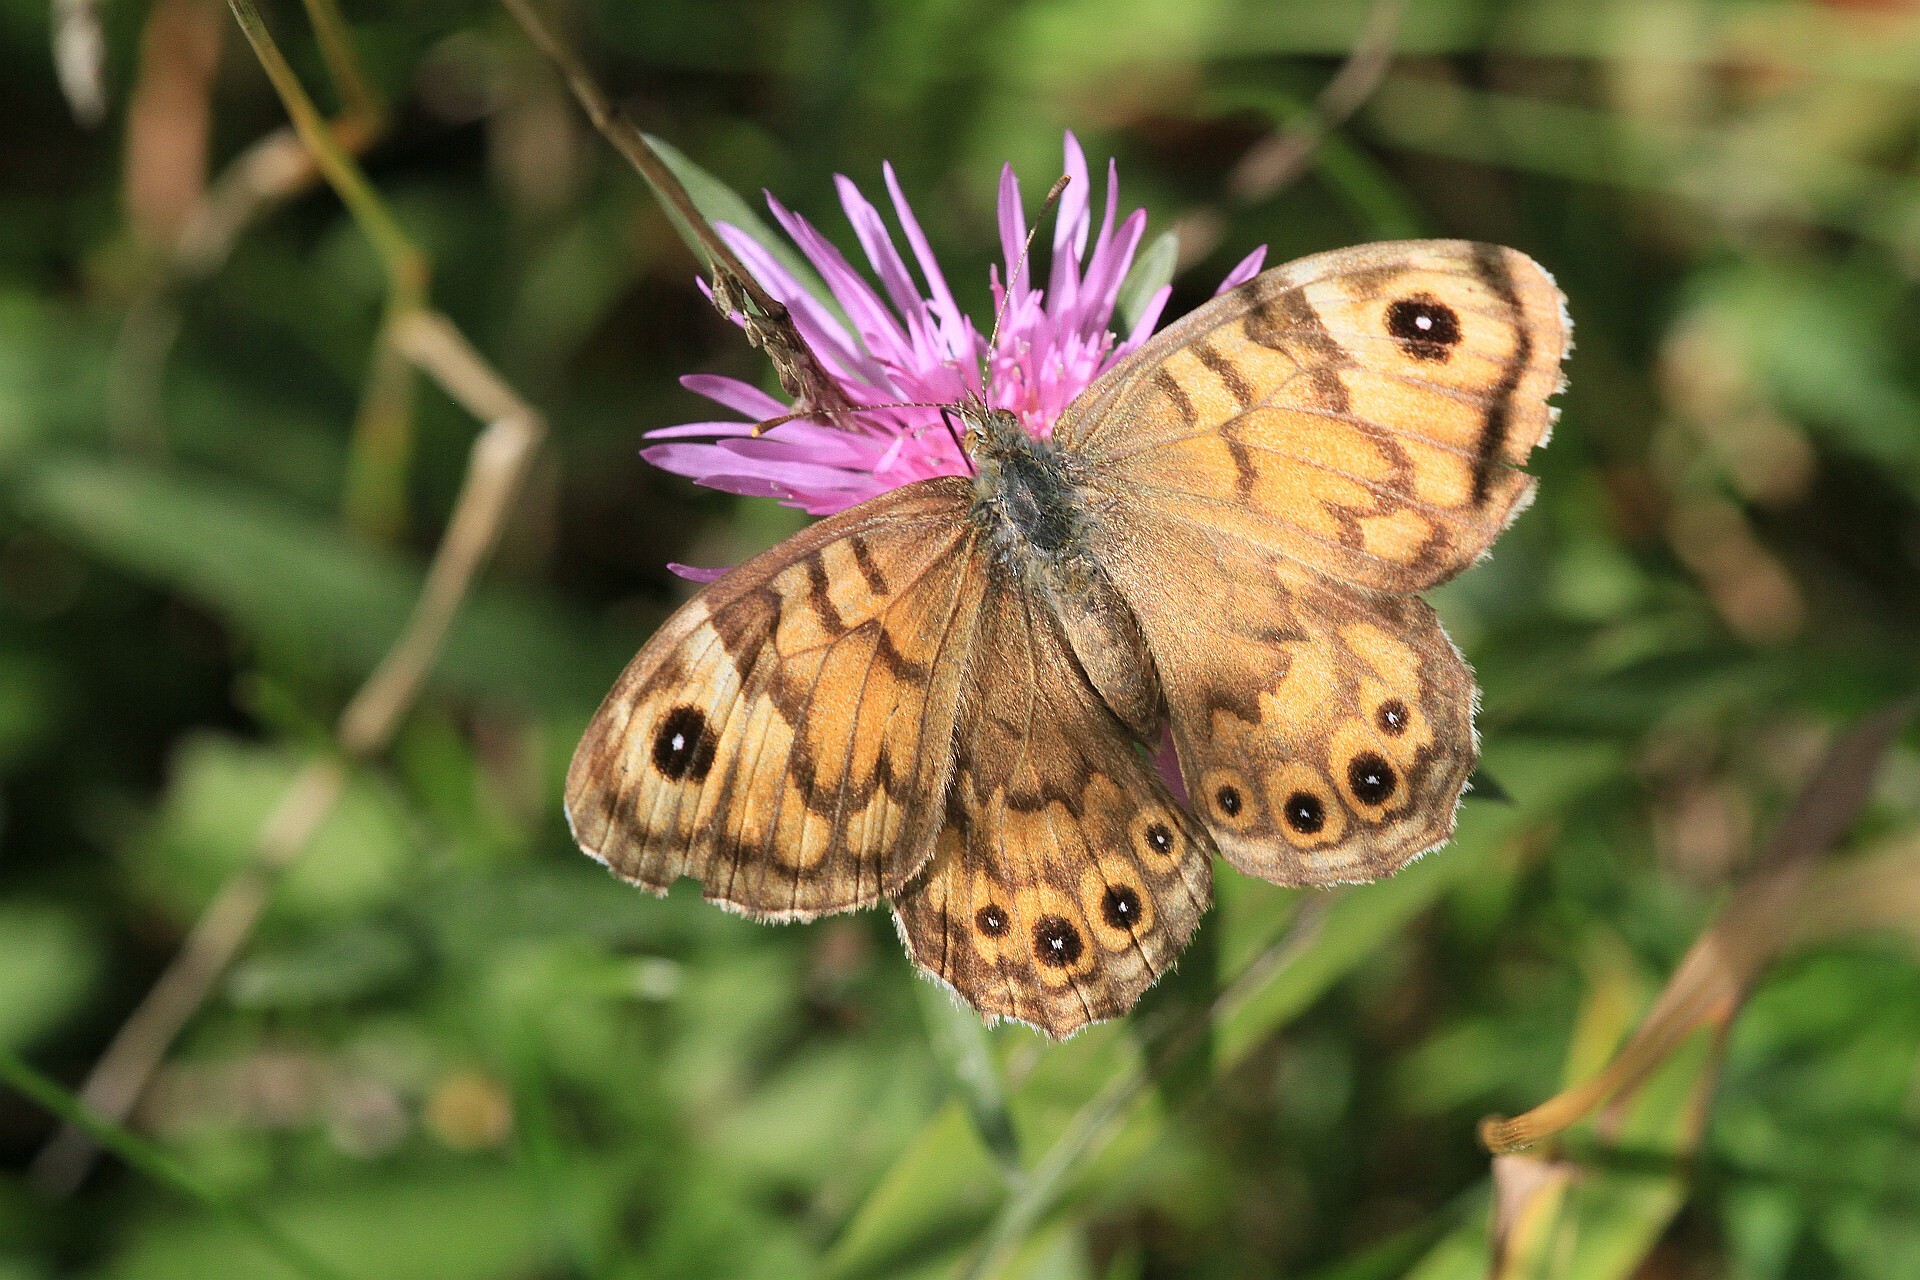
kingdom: Animalia
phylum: Arthropoda
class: Insecta
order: Lepidoptera
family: Nymphalidae
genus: Pararge
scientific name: Pararge Lasiommata megera
